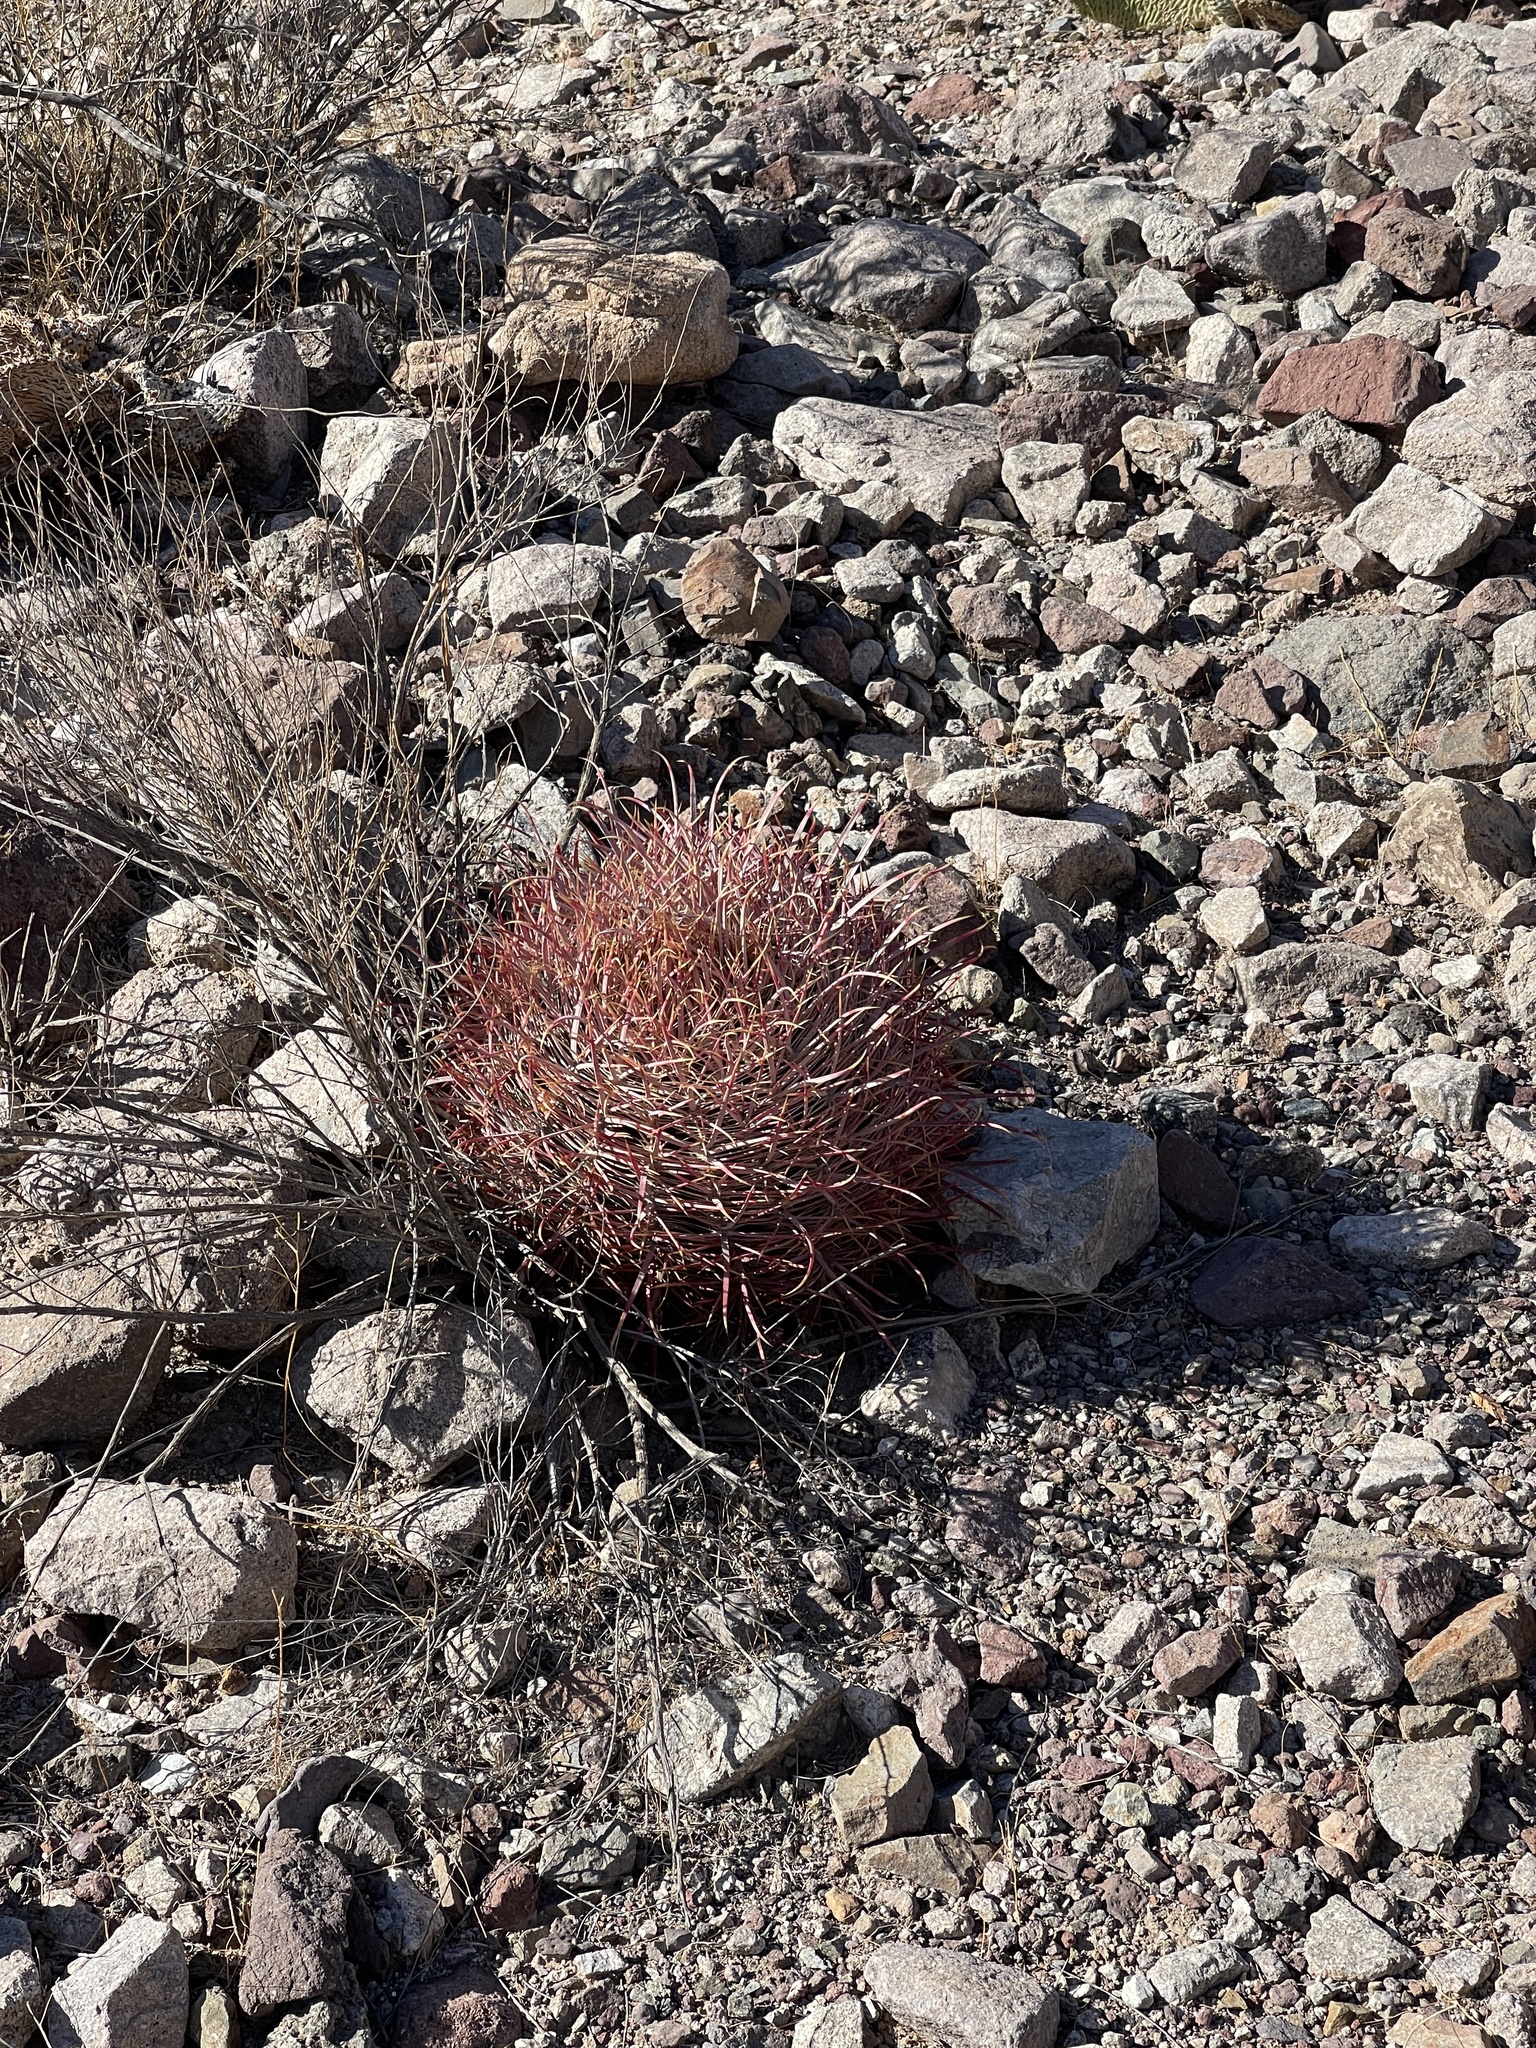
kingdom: Plantae
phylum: Tracheophyta
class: Magnoliopsida
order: Caryophyllales
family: Cactaceae
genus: Ferocactus
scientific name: Ferocactus cylindraceus
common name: California barrel cactus
